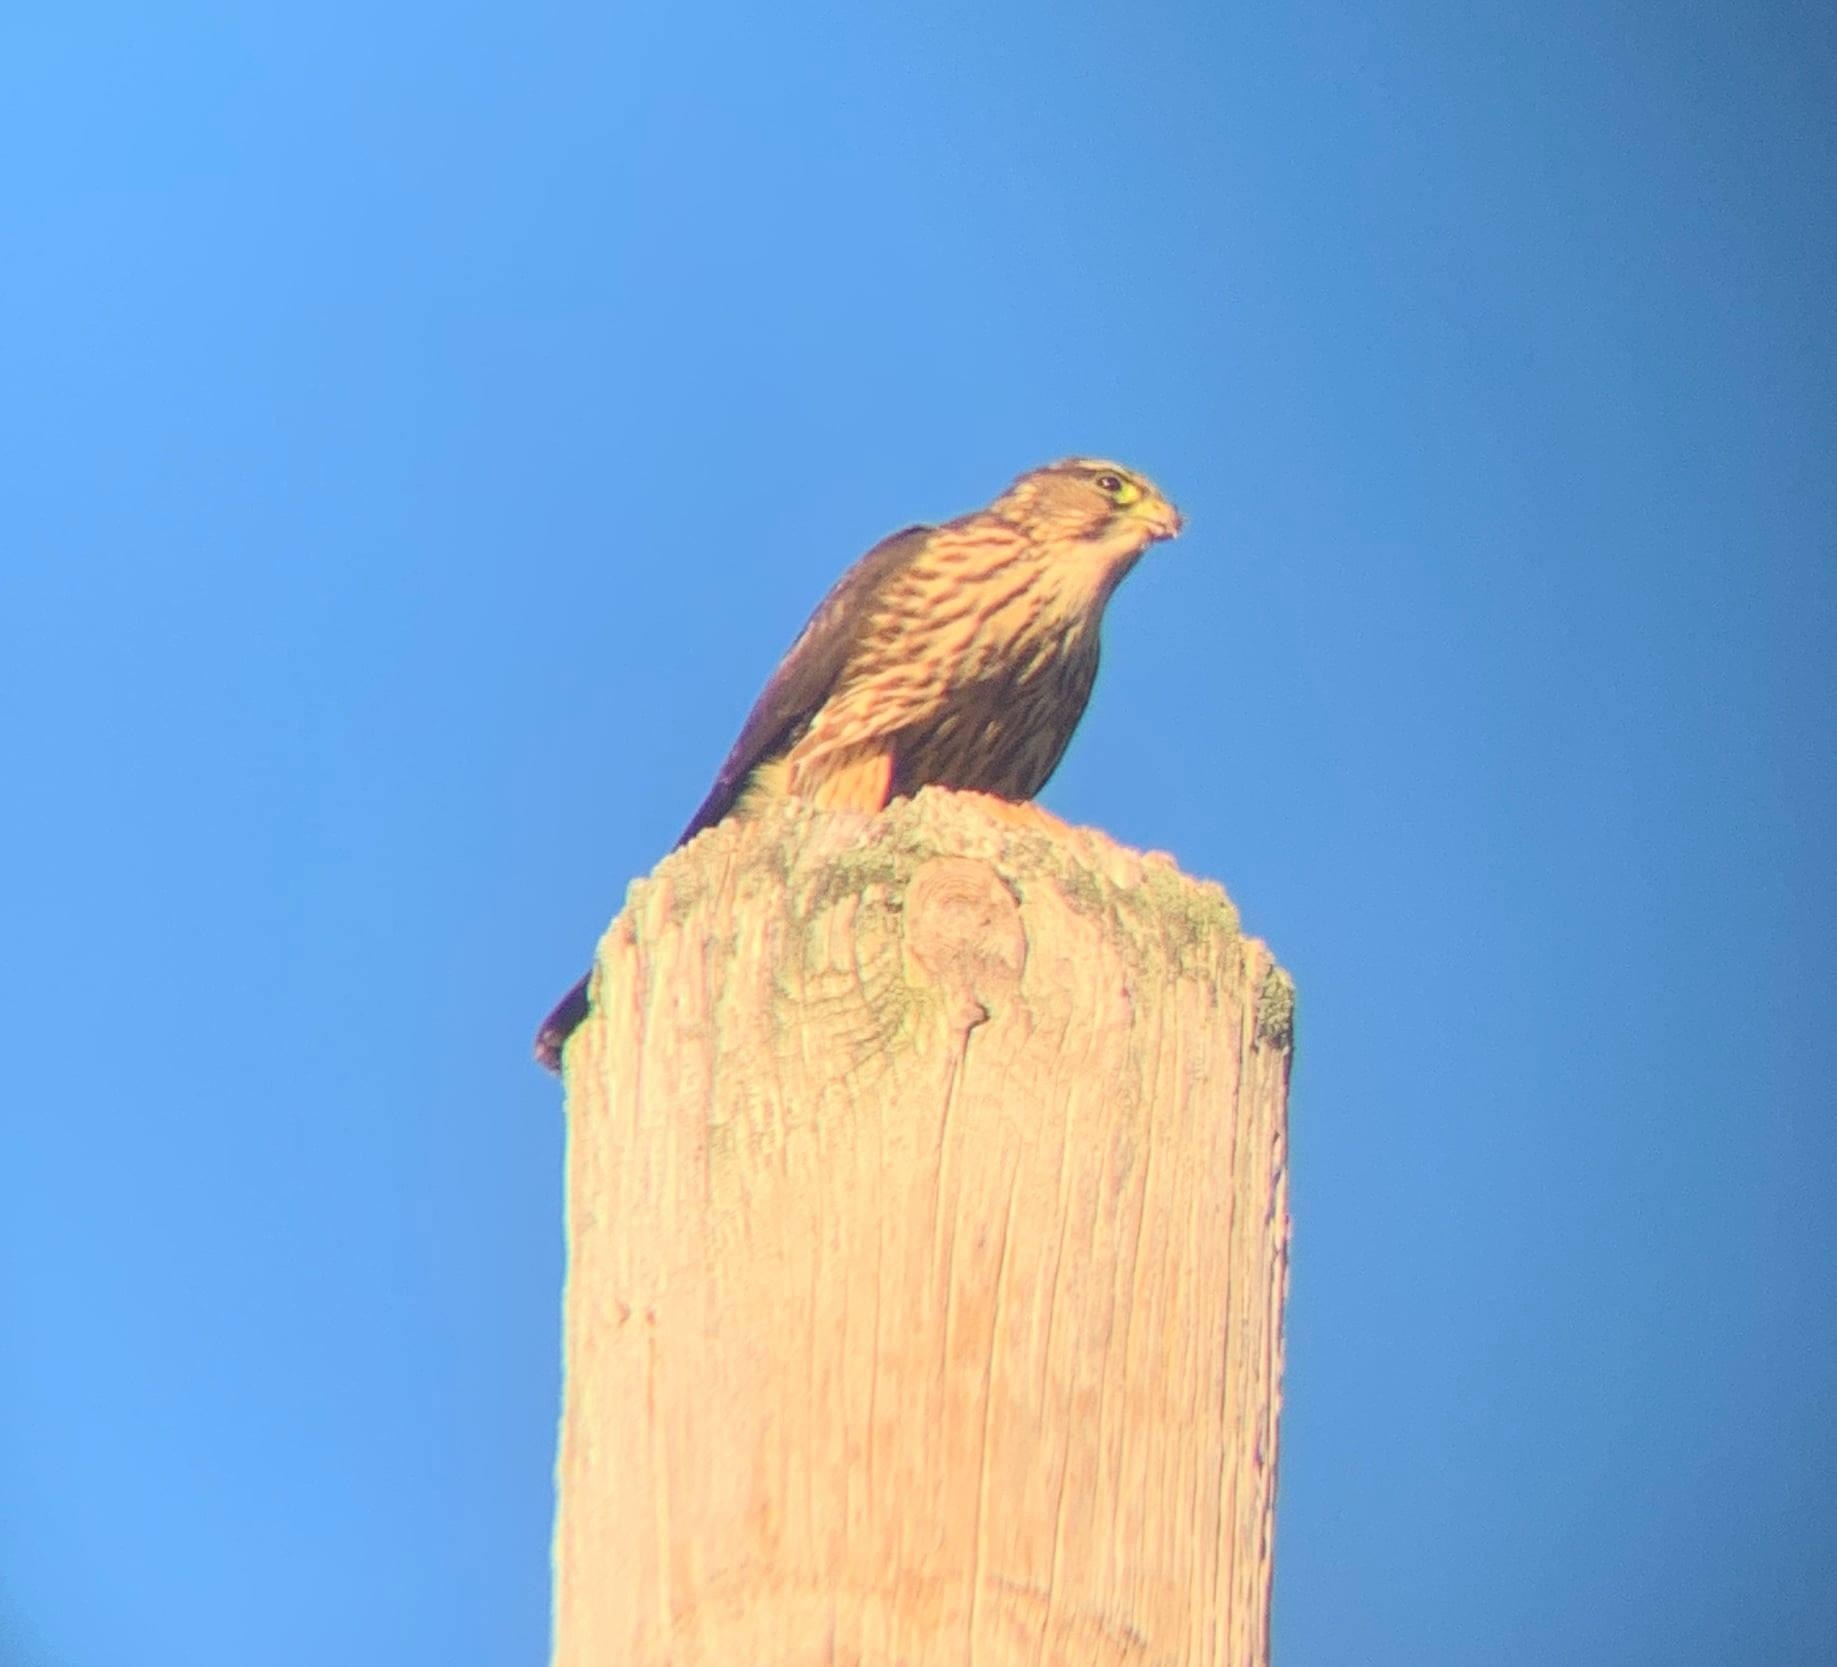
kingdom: Animalia
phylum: Chordata
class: Aves
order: Falconiformes
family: Falconidae
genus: Falco
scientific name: Falco columbarius
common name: Merlin
